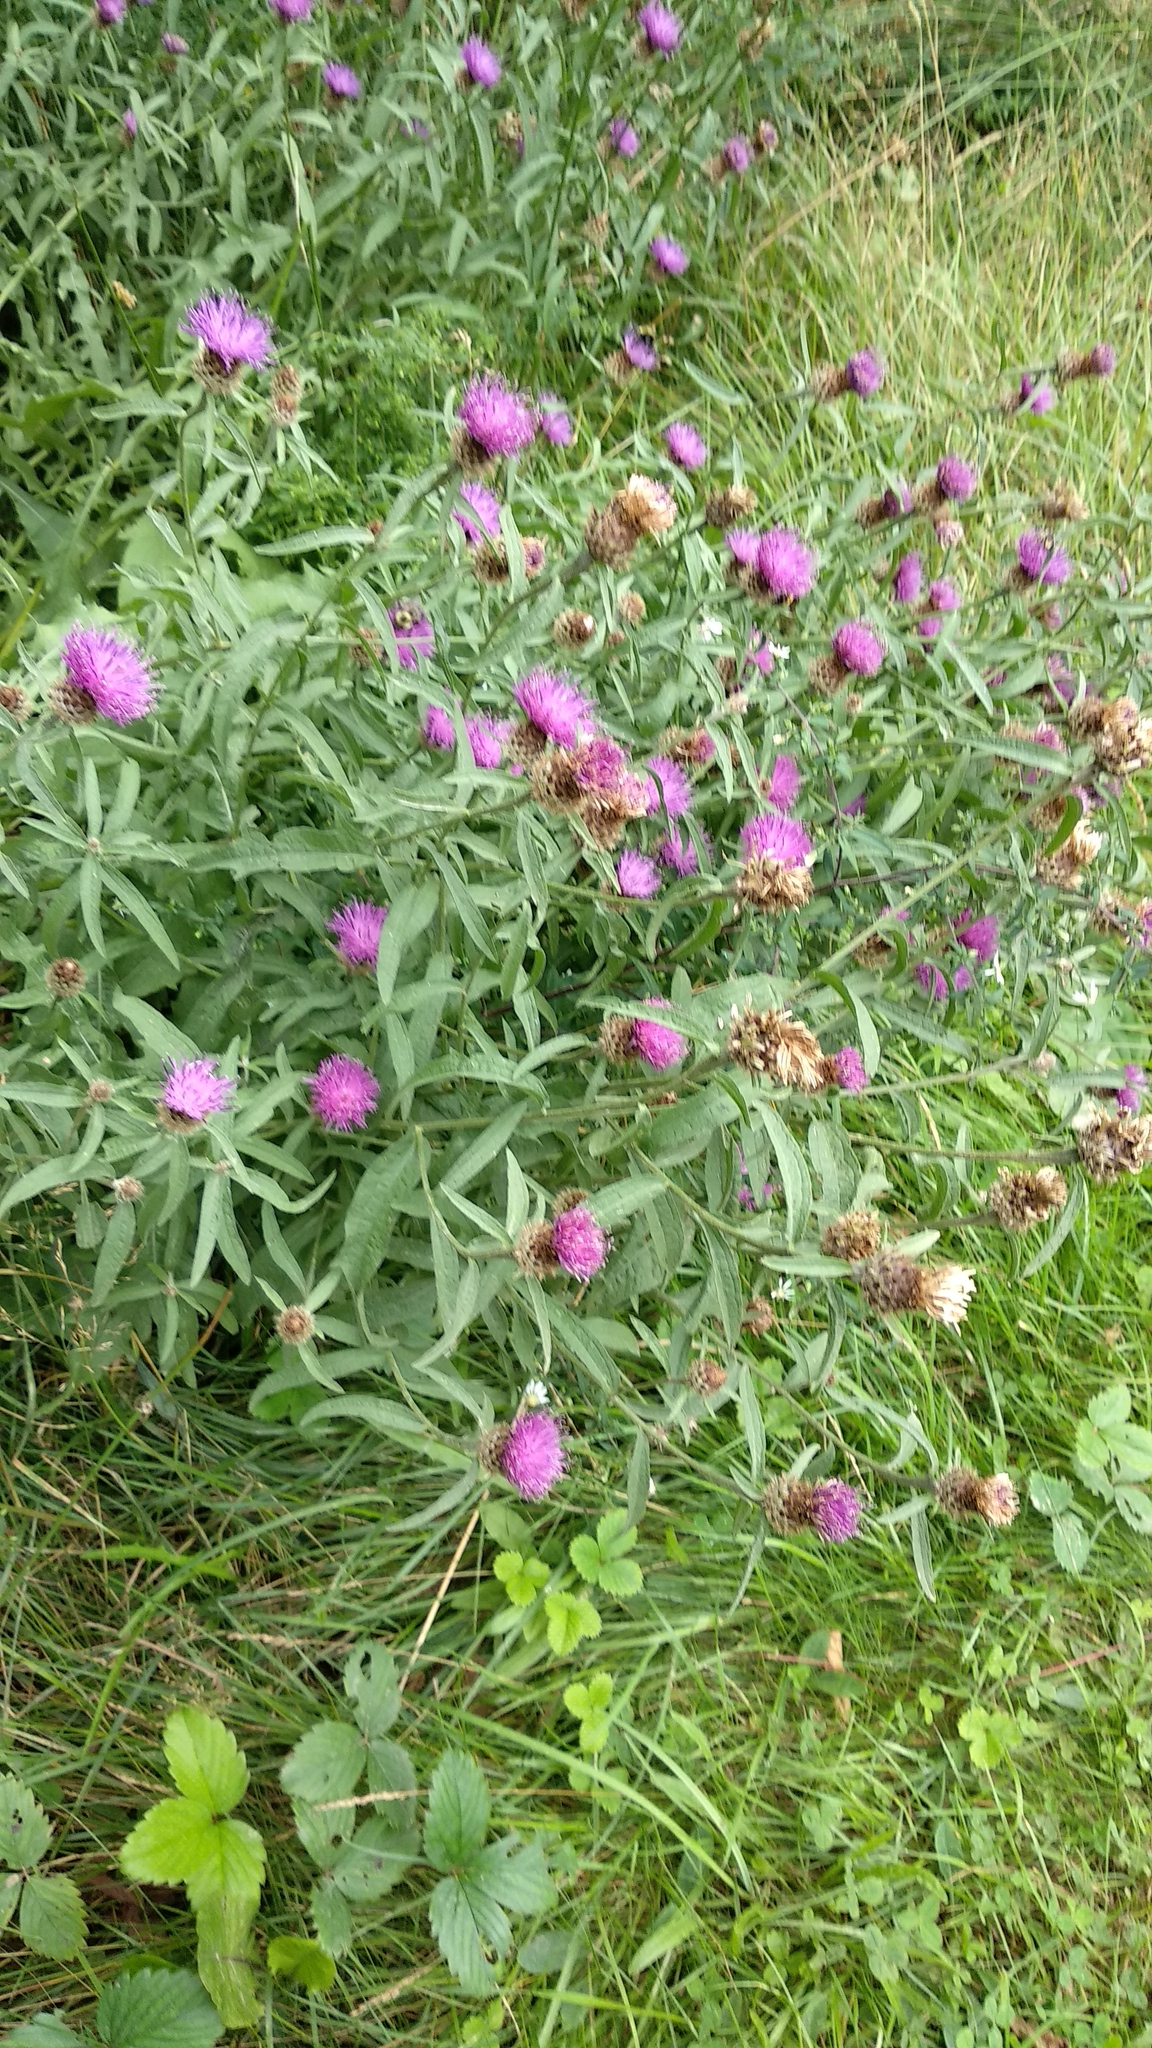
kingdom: Plantae
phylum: Tracheophyta
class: Magnoliopsida
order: Asterales
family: Asteraceae
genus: Centaurea
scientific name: Centaurea nigra
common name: Lesser knapweed
